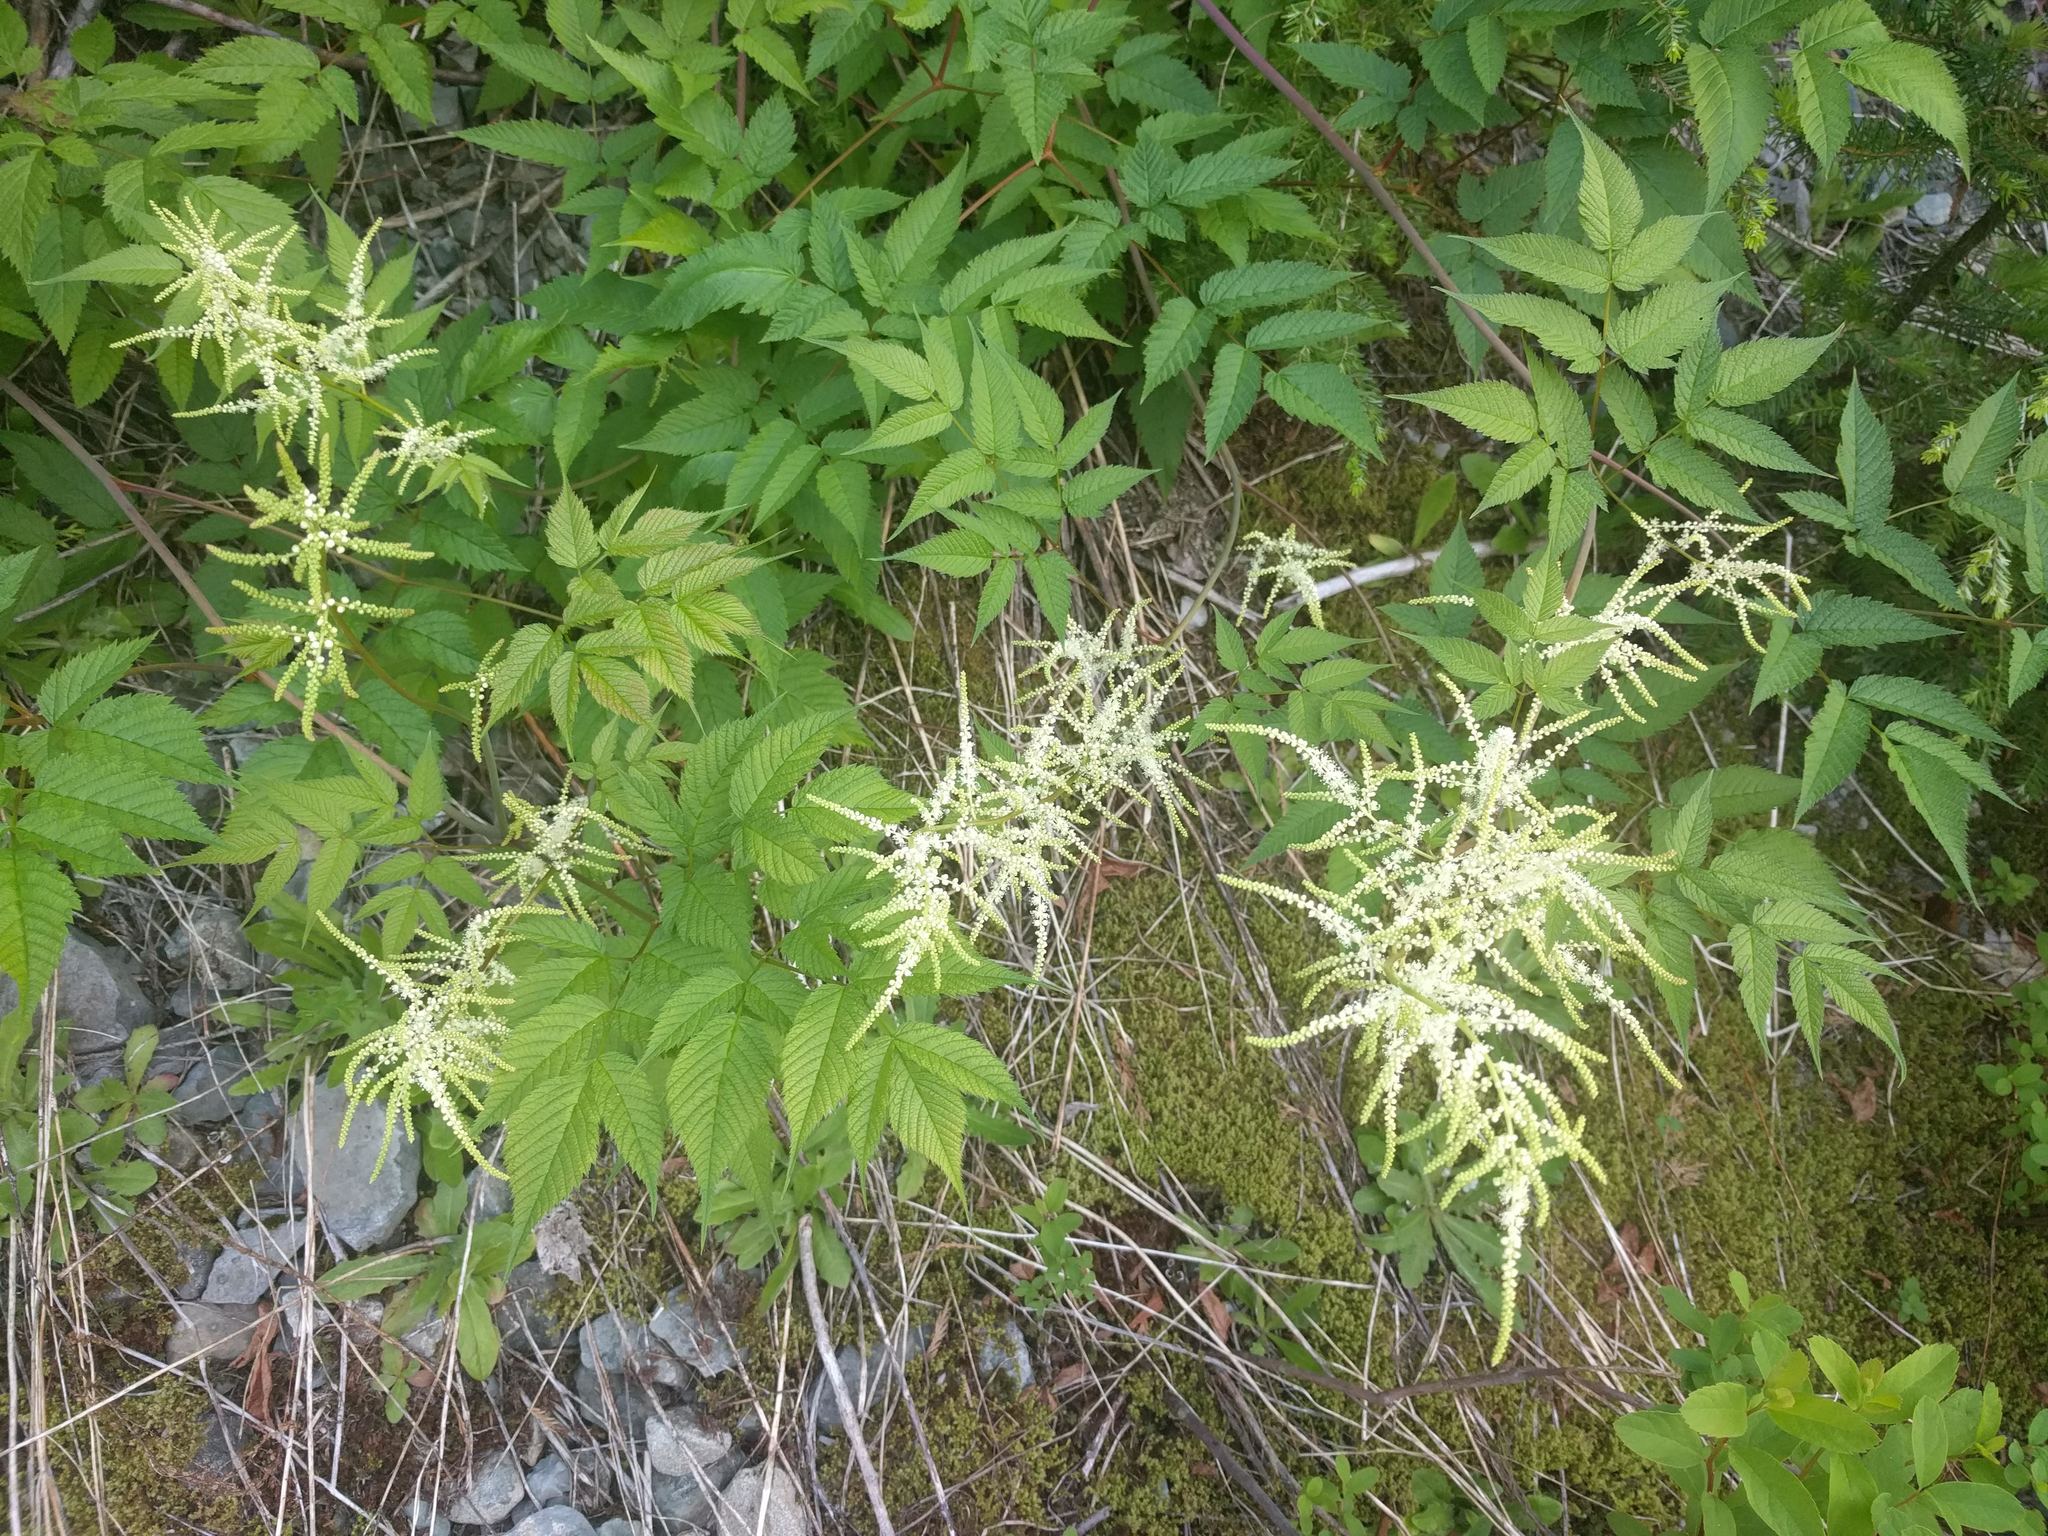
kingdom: Plantae
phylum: Tracheophyta
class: Magnoliopsida
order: Rosales
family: Rosaceae
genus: Aruncus
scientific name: Aruncus dioicus
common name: Buck's-beard
